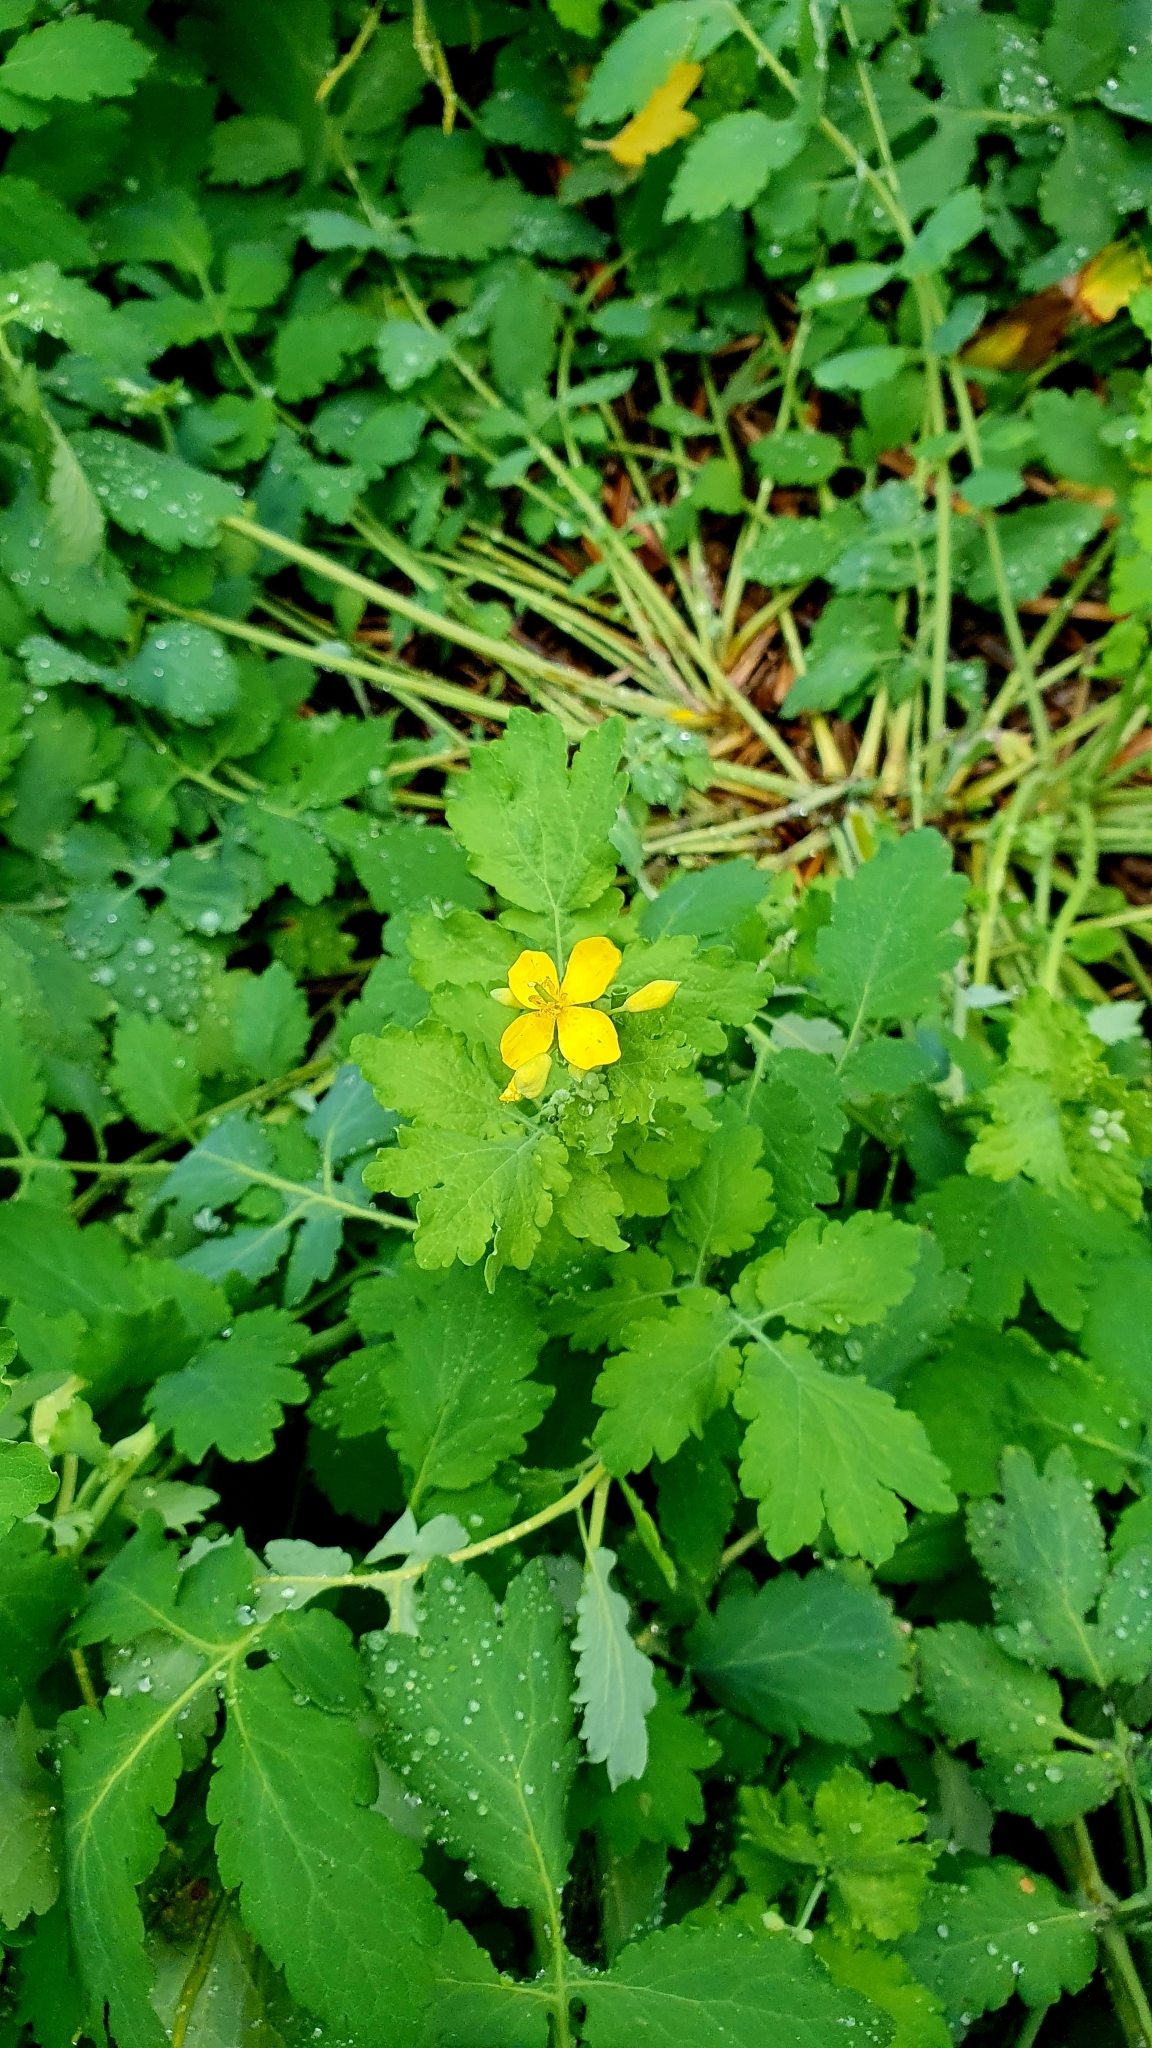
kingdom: Plantae
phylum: Tracheophyta
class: Magnoliopsida
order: Ranunculales
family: Papaveraceae
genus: Chelidonium
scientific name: Chelidonium majus
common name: Greater celandine
